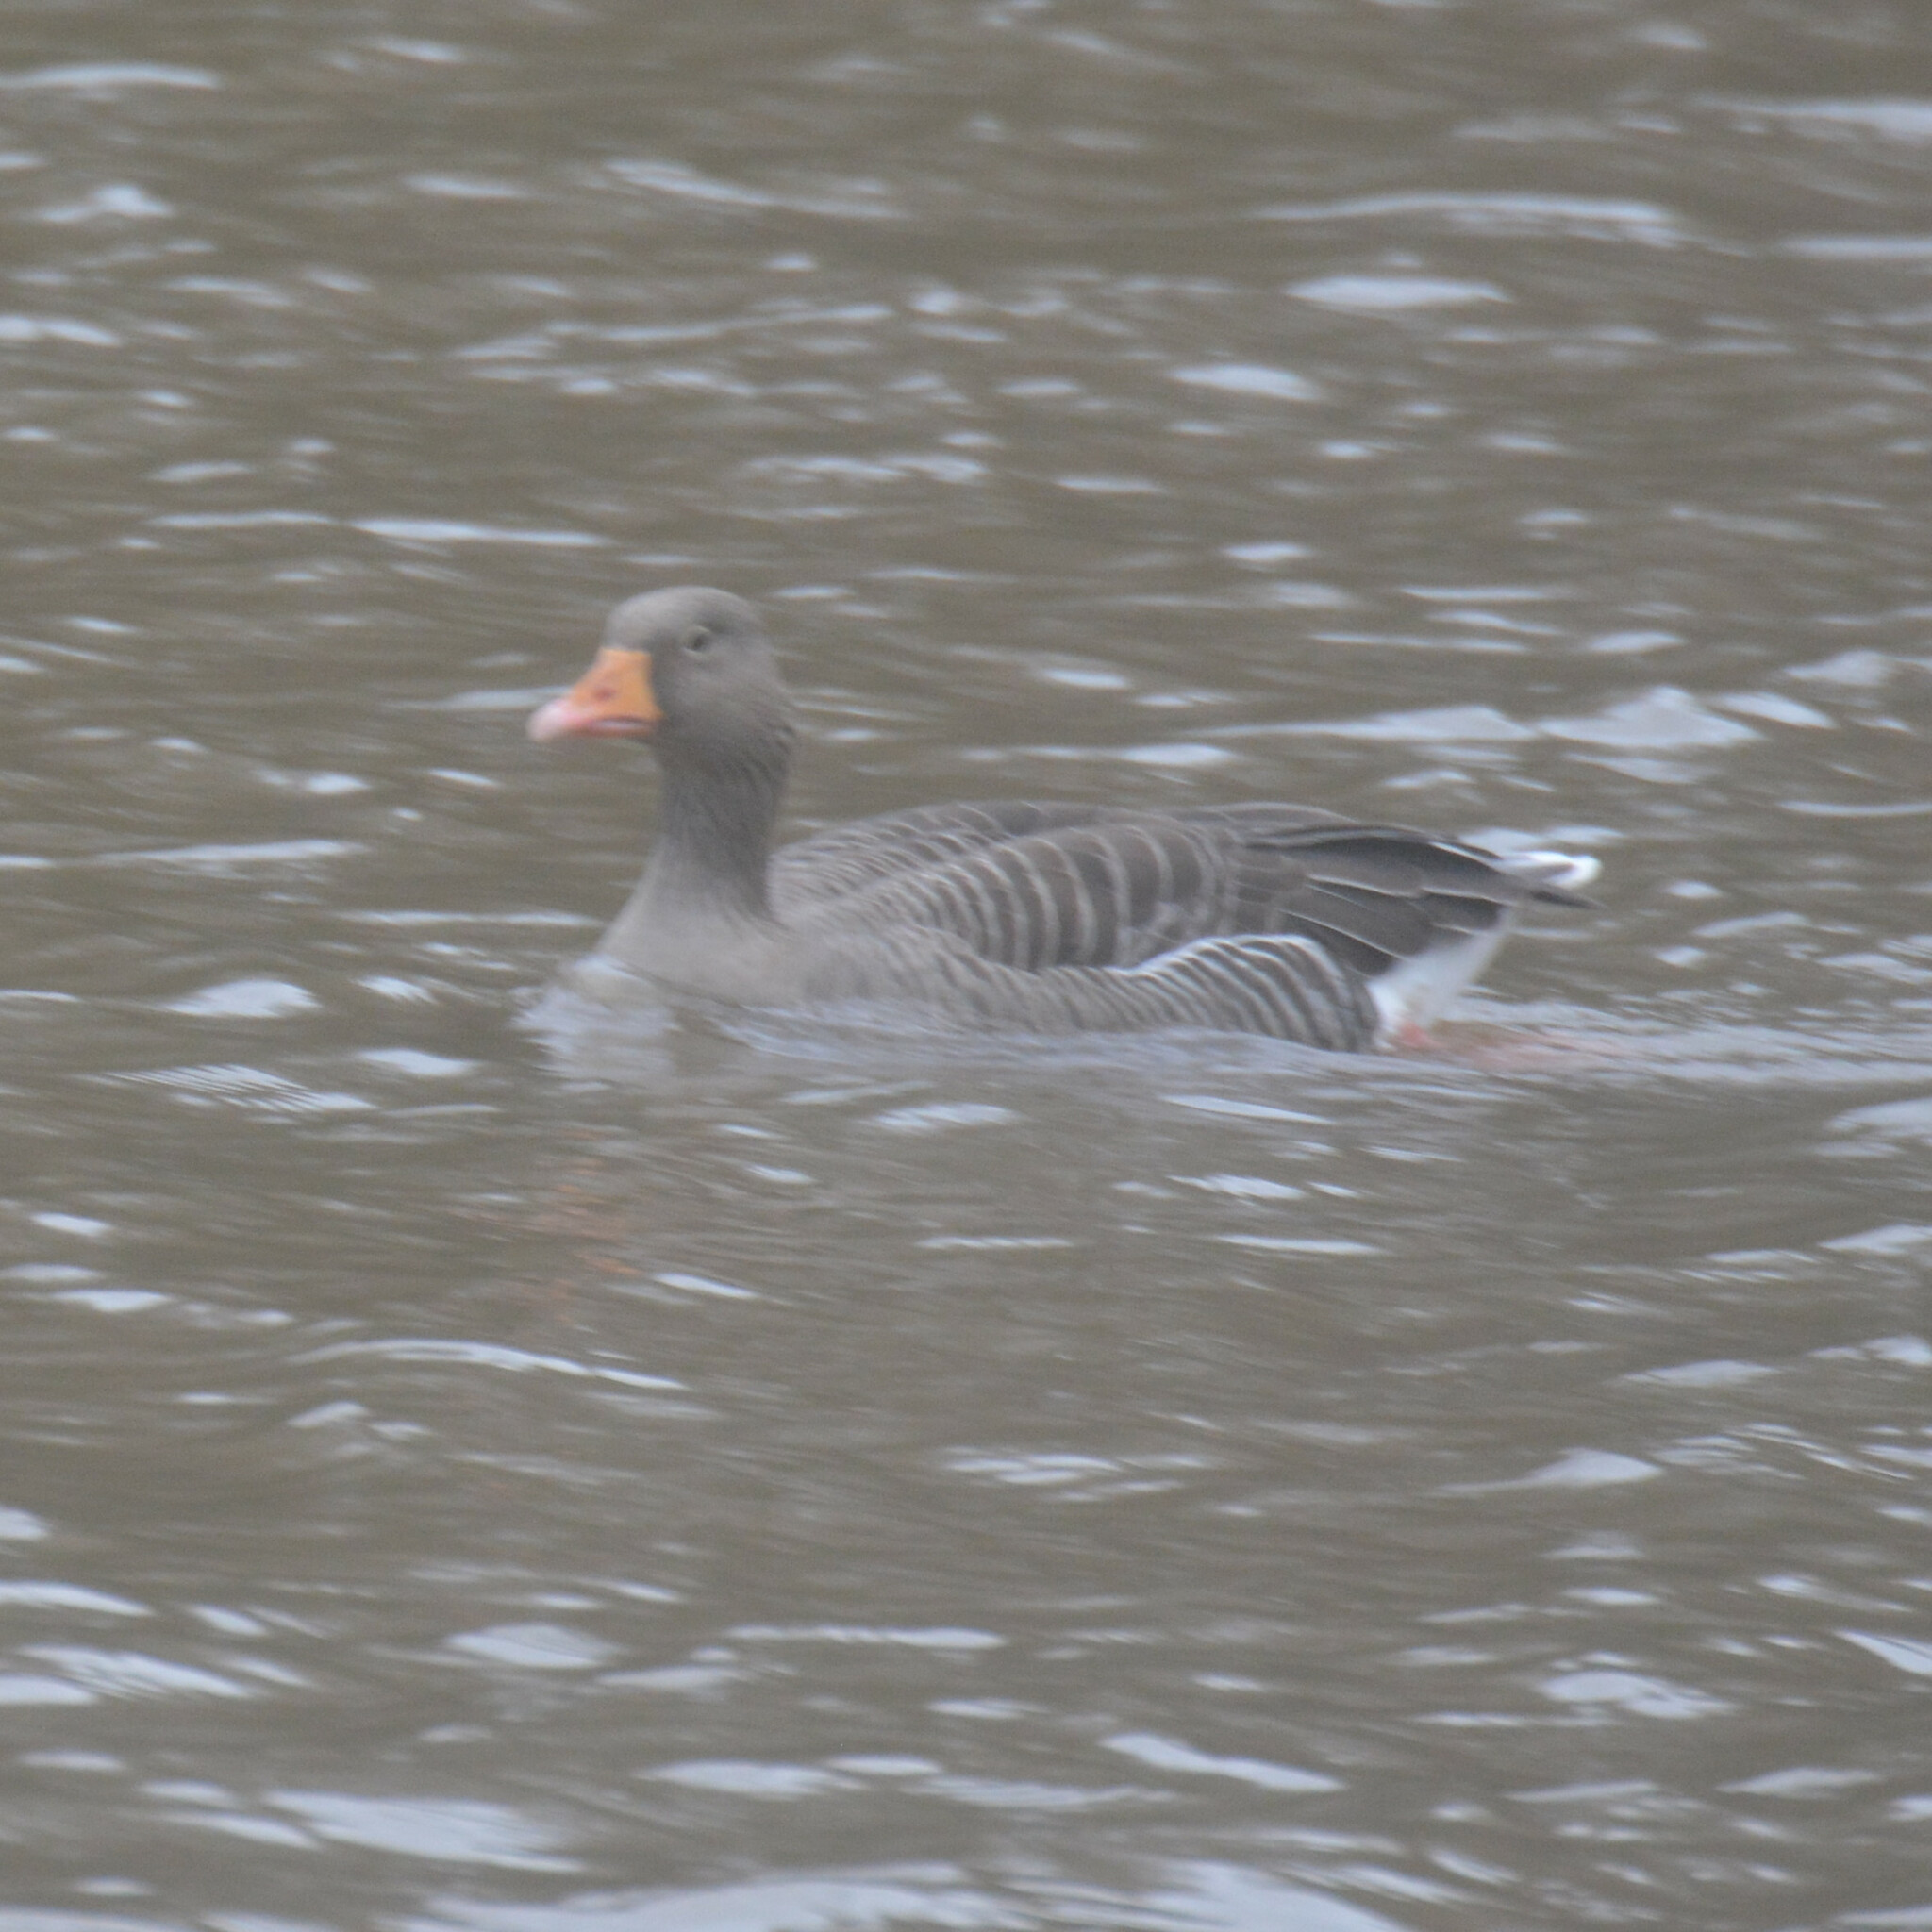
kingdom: Animalia
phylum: Chordata
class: Aves
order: Anseriformes
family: Anatidae
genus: Anser
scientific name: Anser anser
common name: Greylag goose
